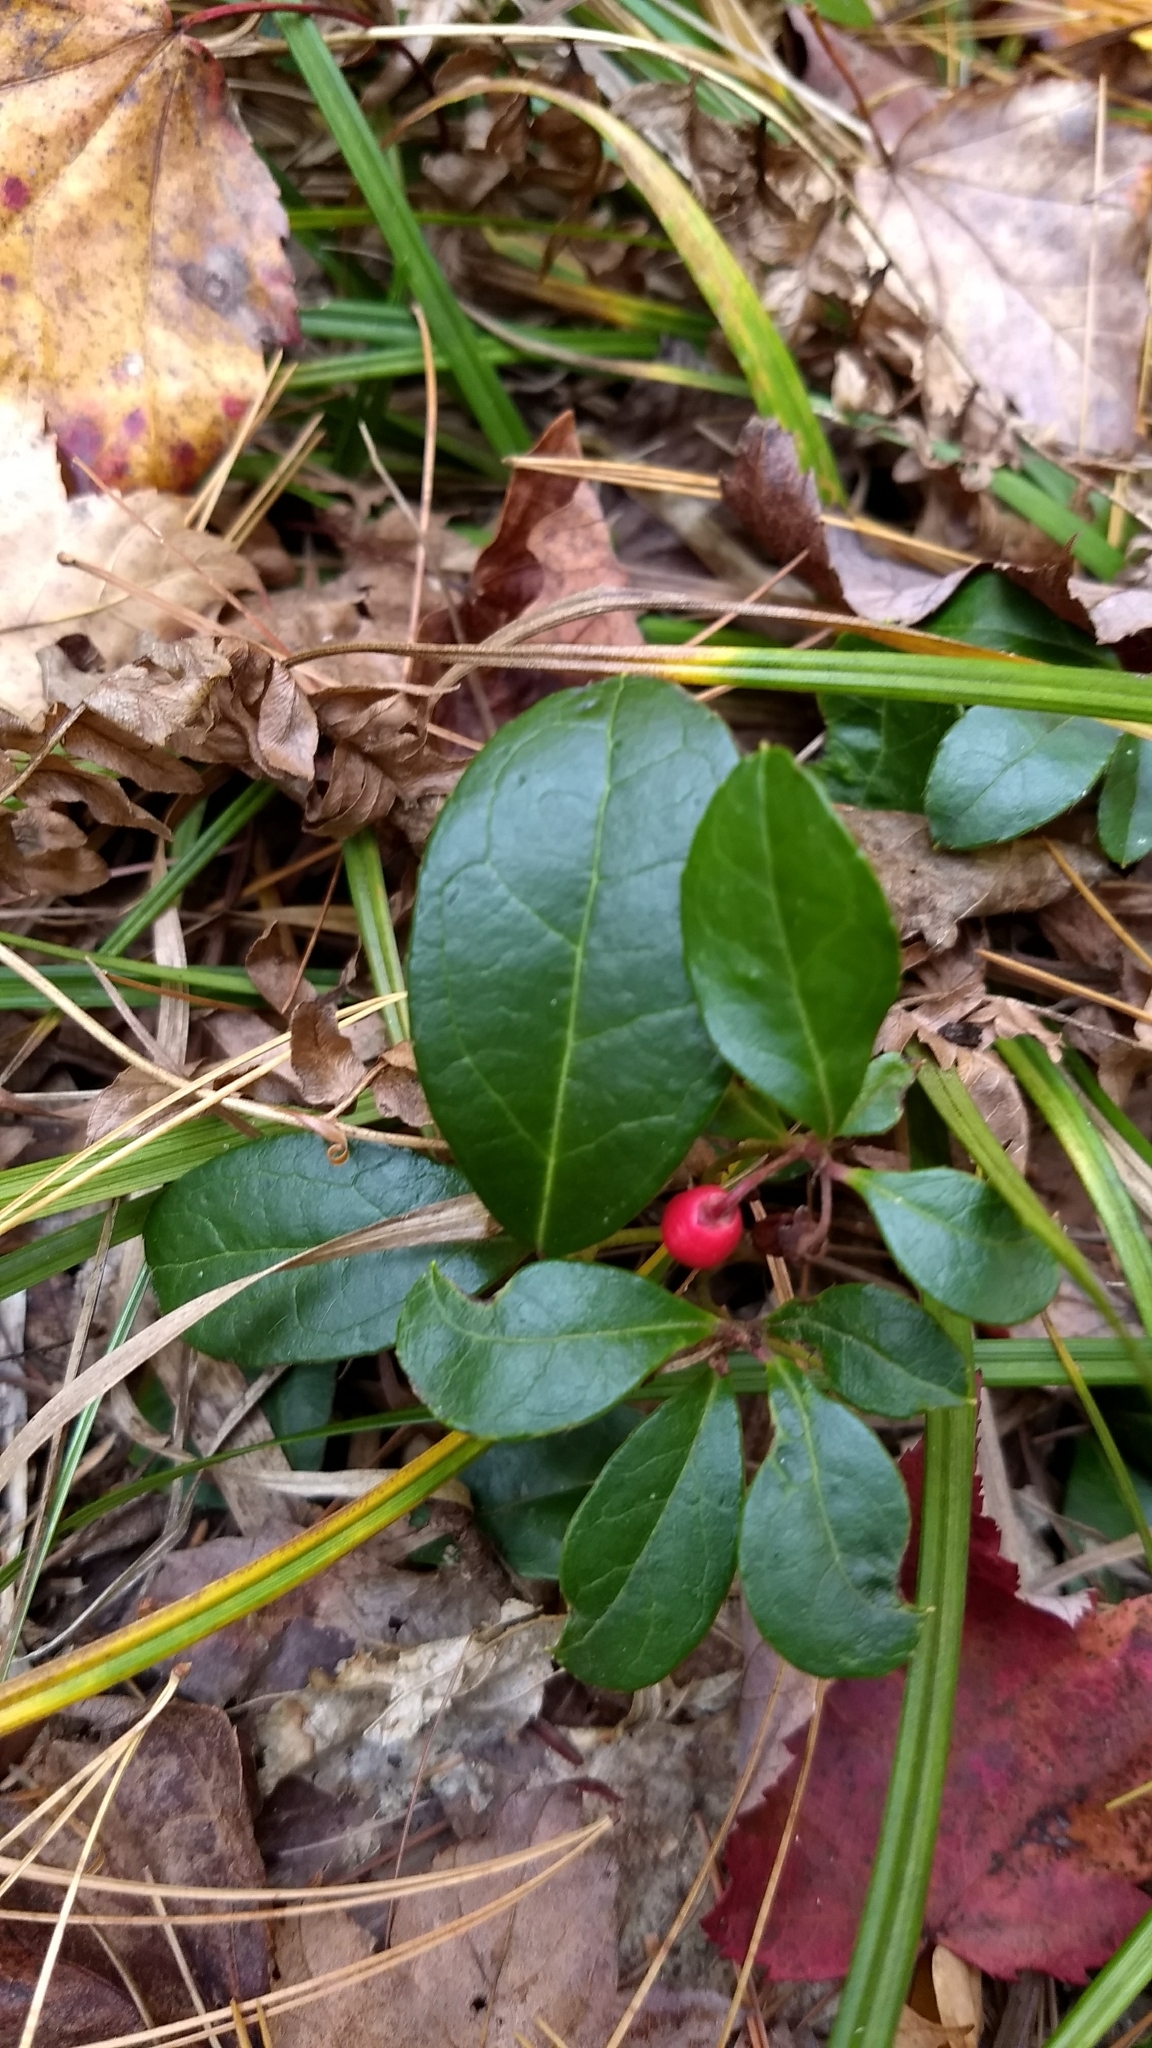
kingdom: Plantae
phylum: Tracheophyta
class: Magnoliopsida
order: Ericales
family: Ericaceae
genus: Gaultheria
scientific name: Gaultheria procumbens
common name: Checkerberry
